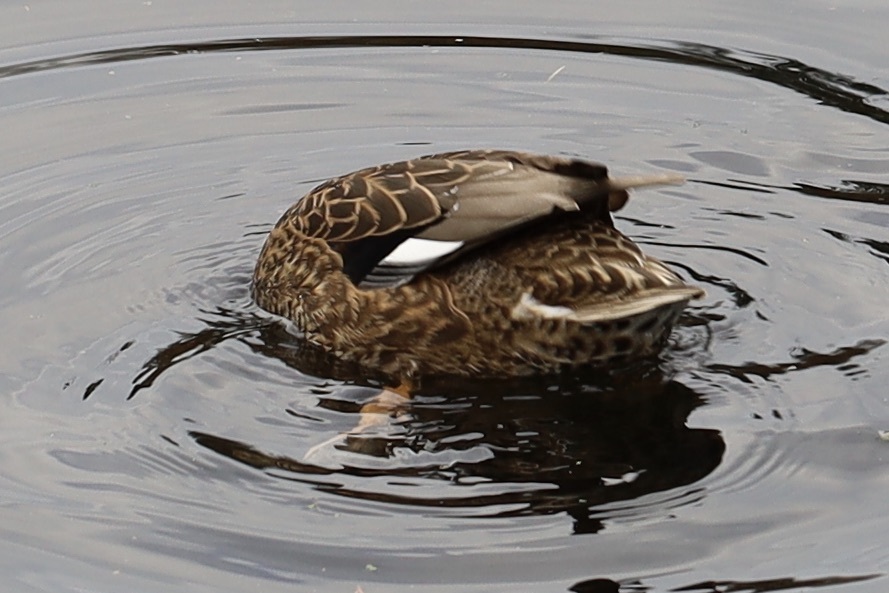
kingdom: Animalia
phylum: Chordata
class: Aves
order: Anseriformes
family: Anatidae
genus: Mareca
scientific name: Mareca strepera
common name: Gadwall
